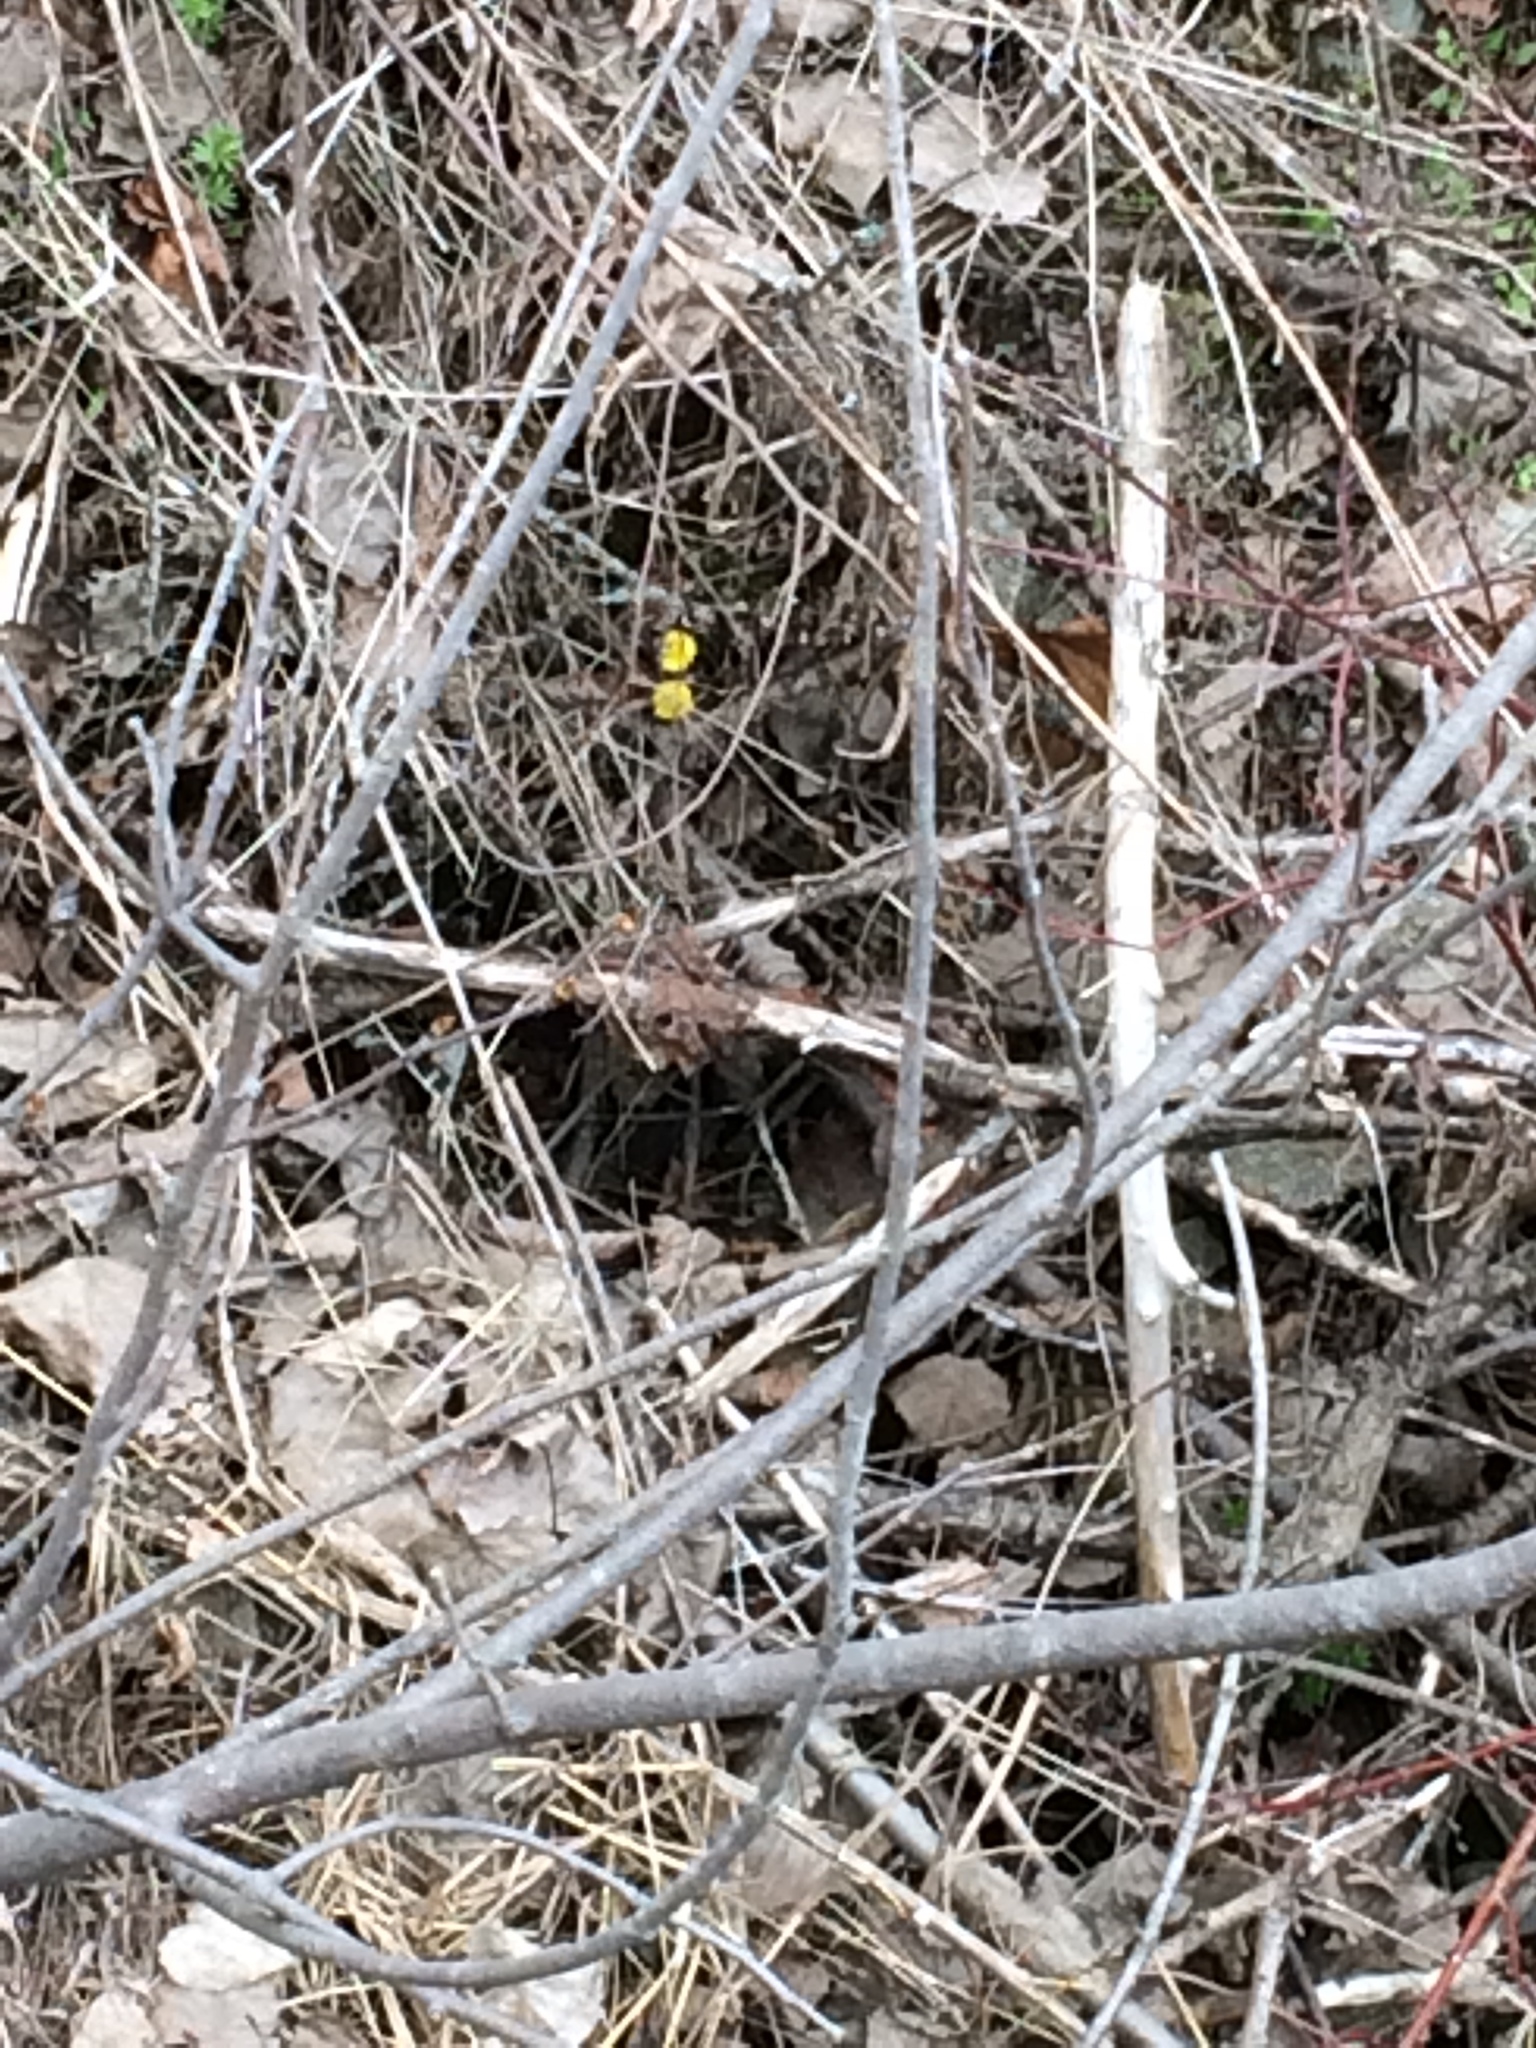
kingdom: Plantae
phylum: Tracheophyta
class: Magnoliopsida
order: Asterales
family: Asteraceae
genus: Tussilago
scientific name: Tussilago farfara
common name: Coltsfoot
